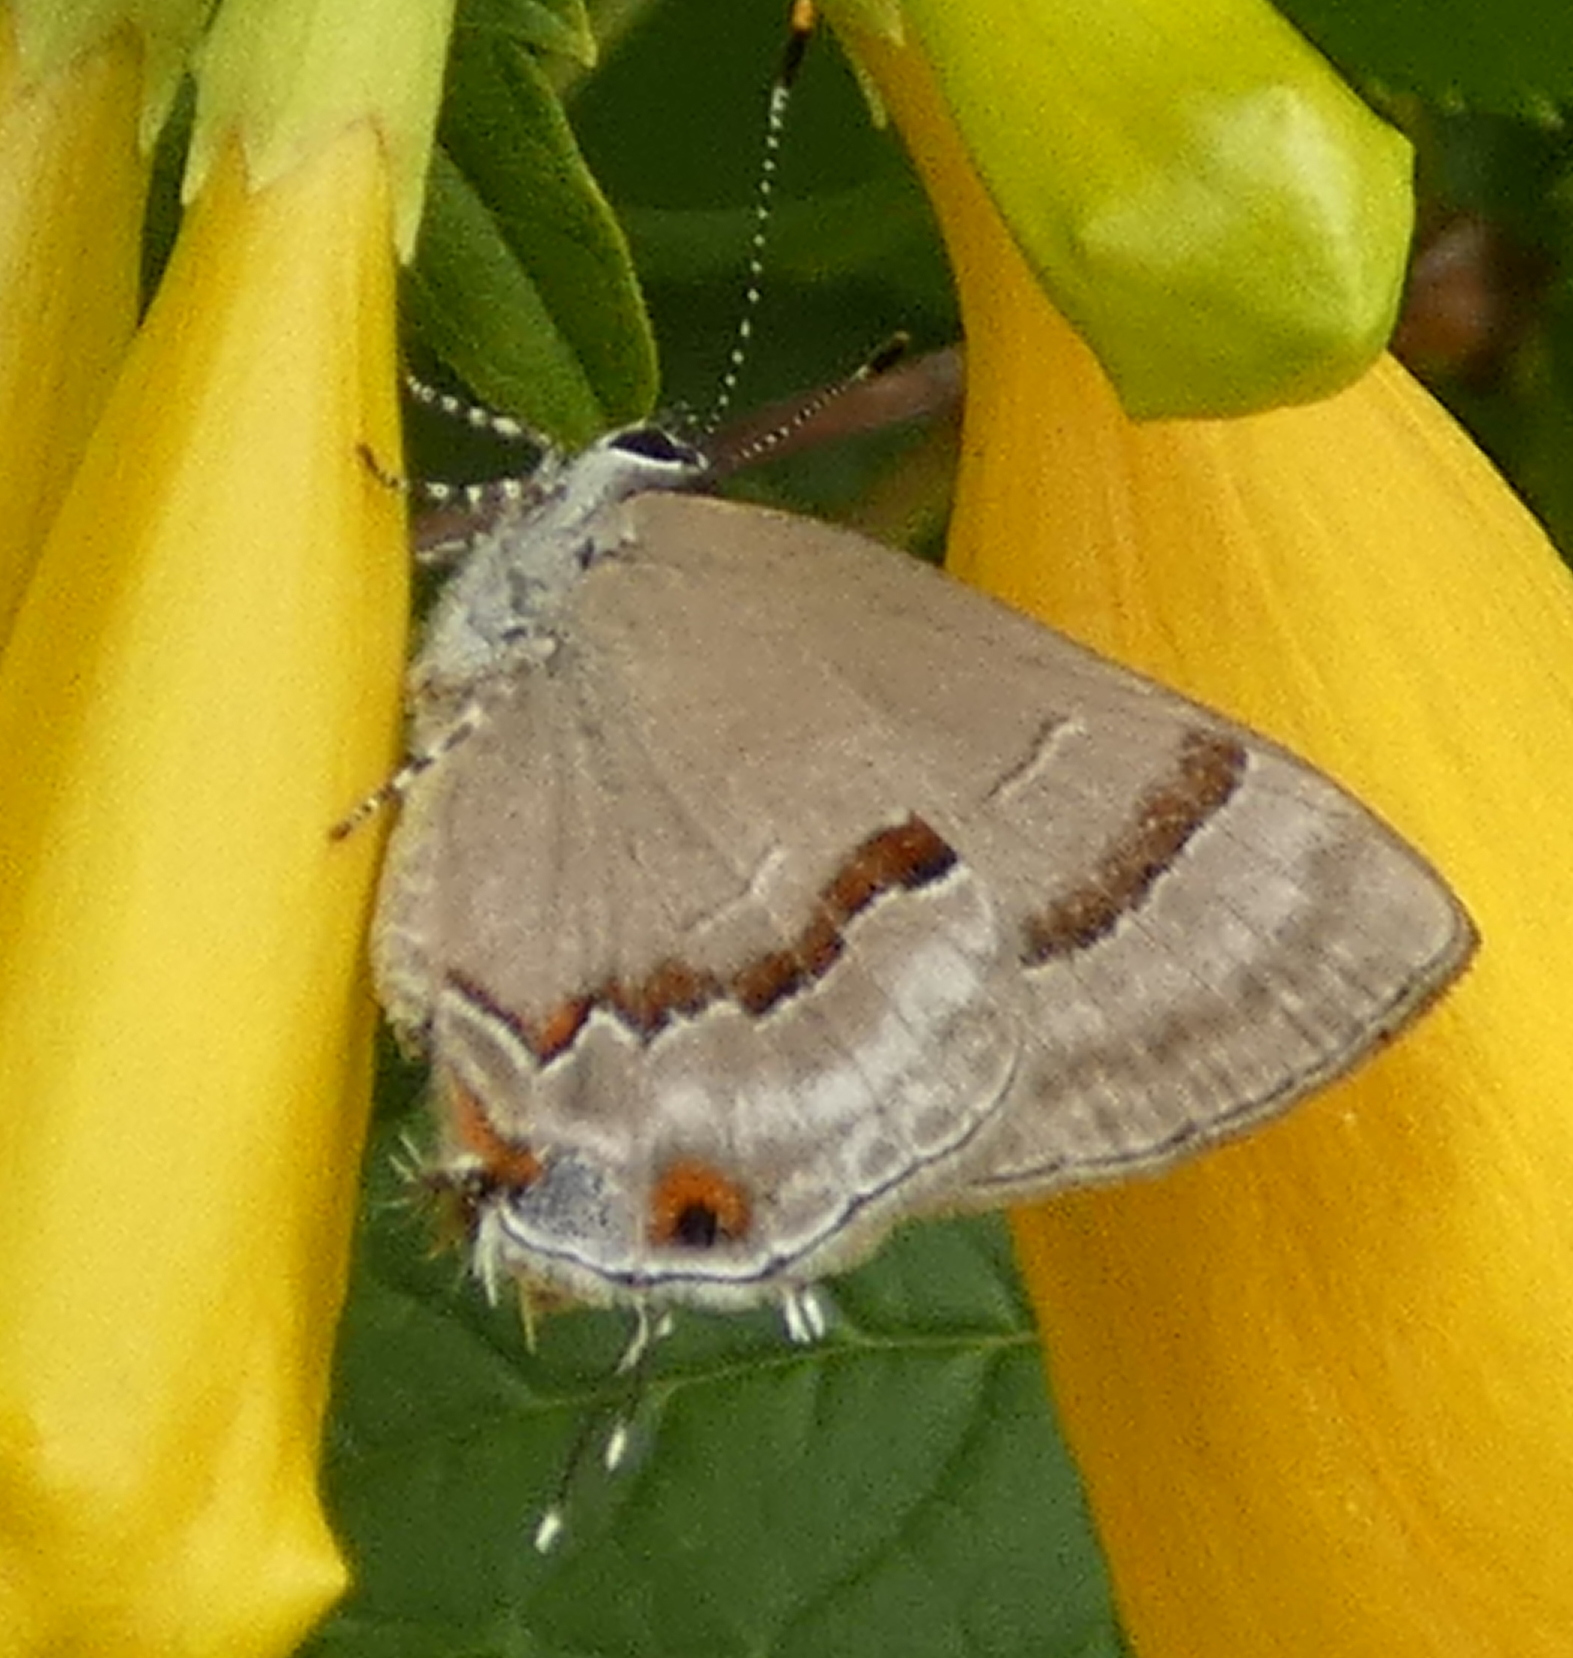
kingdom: Animalia
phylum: Arthropoda
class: Insecta
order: Lepidoptera
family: Lycaenidae
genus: Thecla
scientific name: Thecla ecbatana
